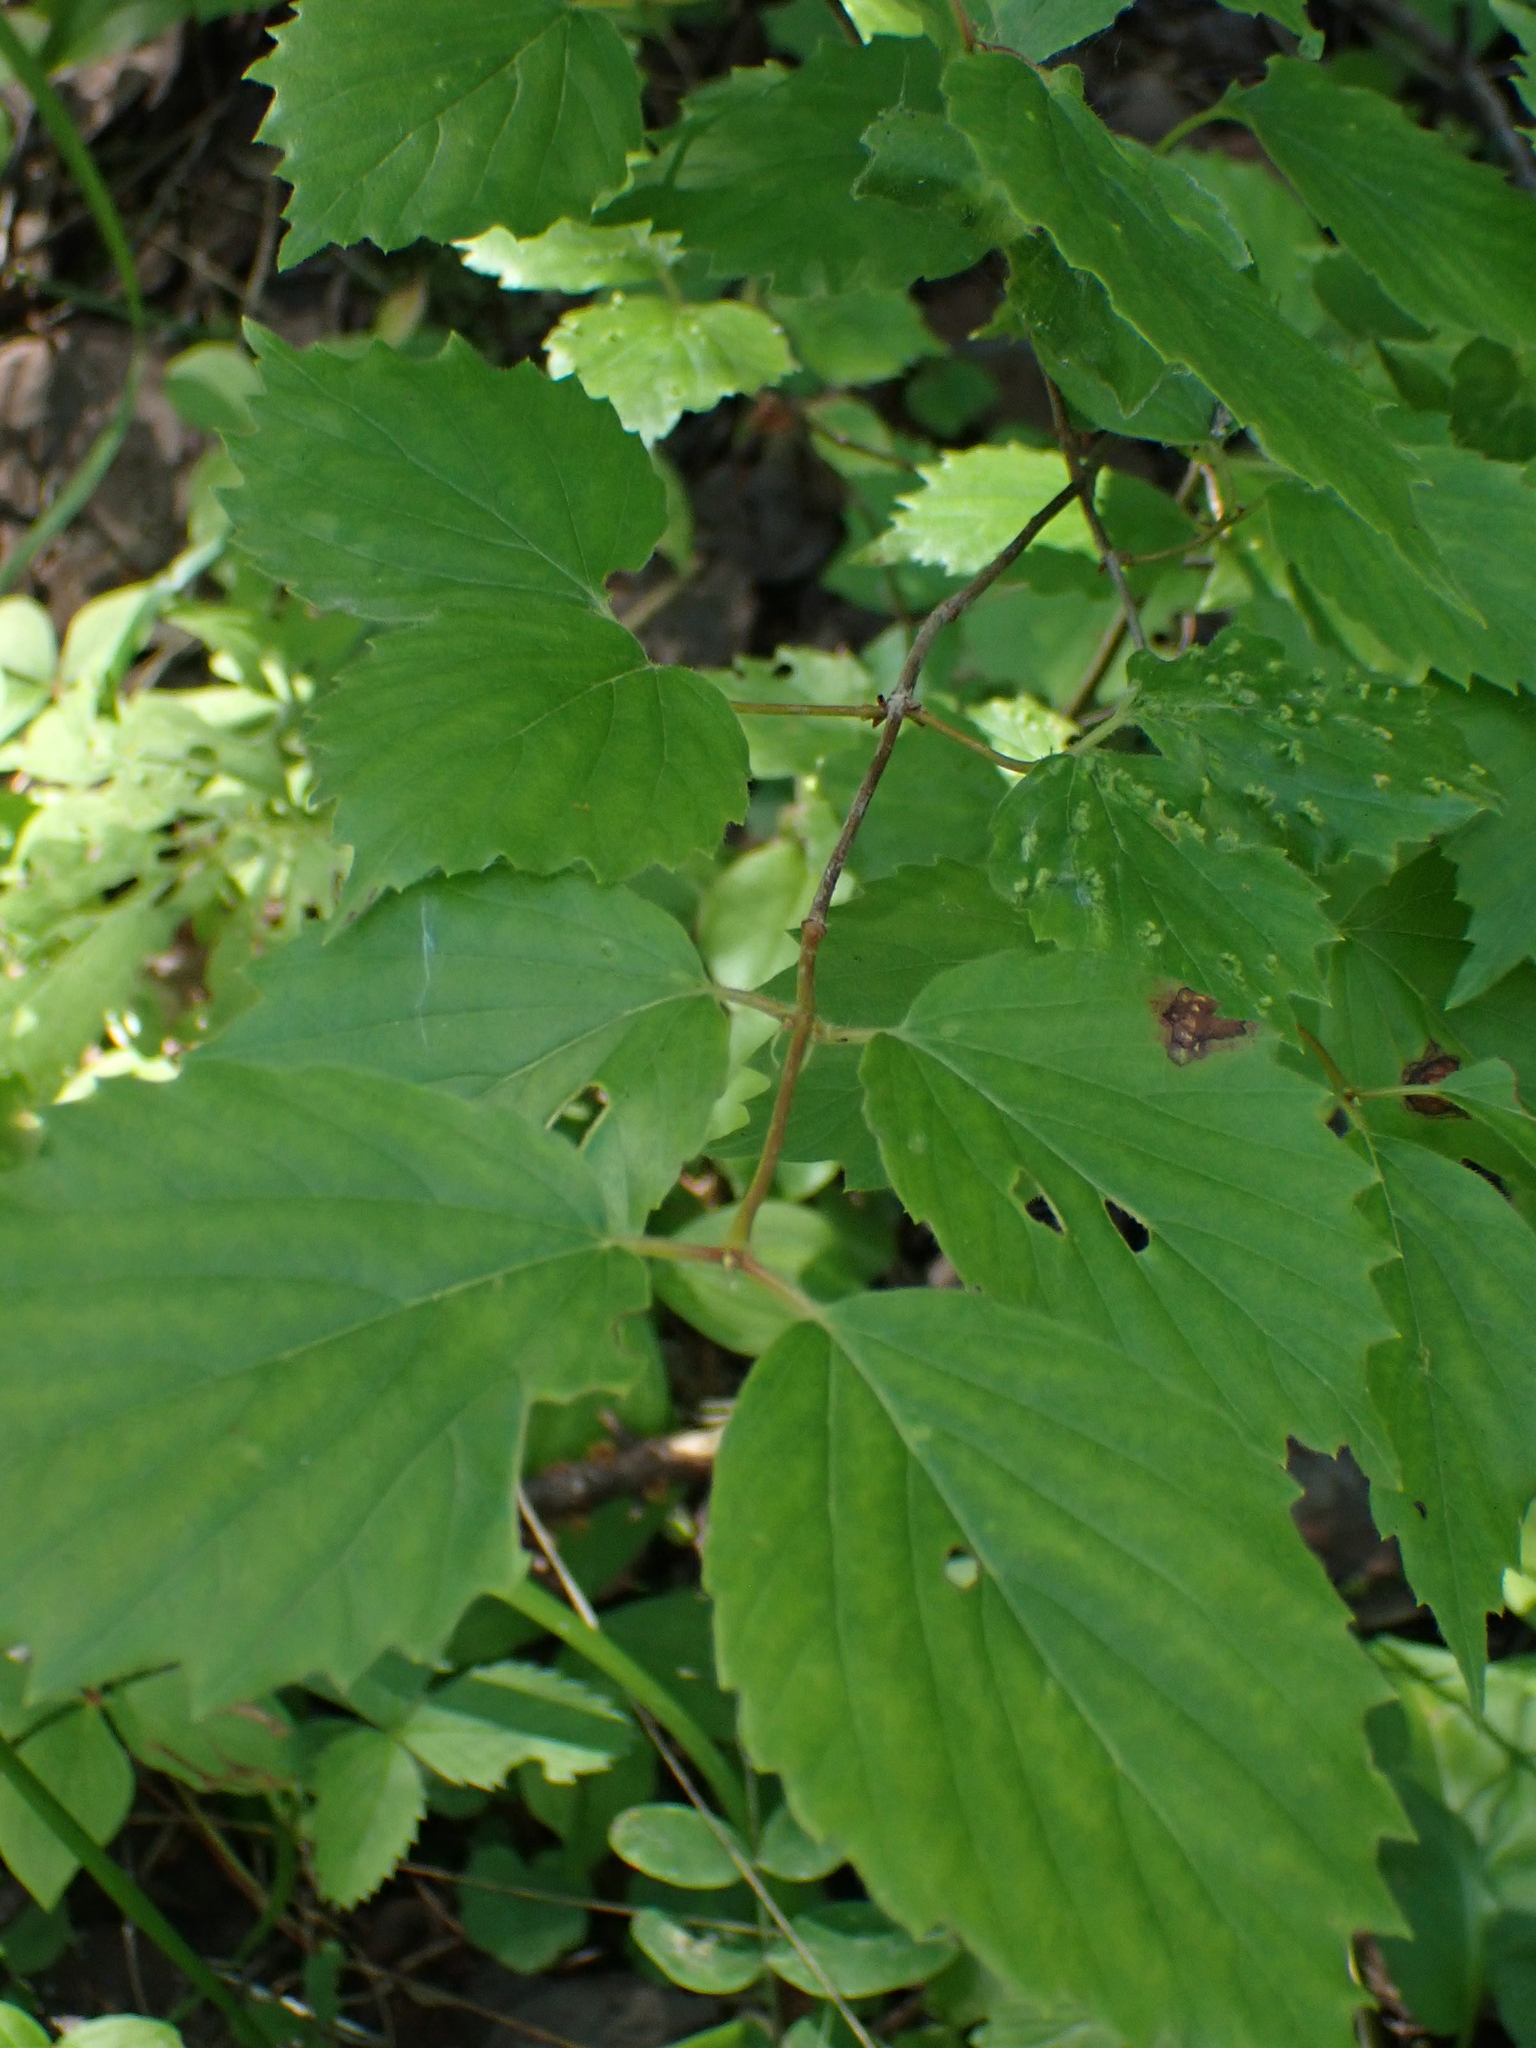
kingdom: Plantae
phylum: Tracheophyta
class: Magnoliopsida
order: Dipsacales
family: Viburnaceae
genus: Viburnum
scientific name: Viburnum rafinesqueanum
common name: Downy arrow-wood
